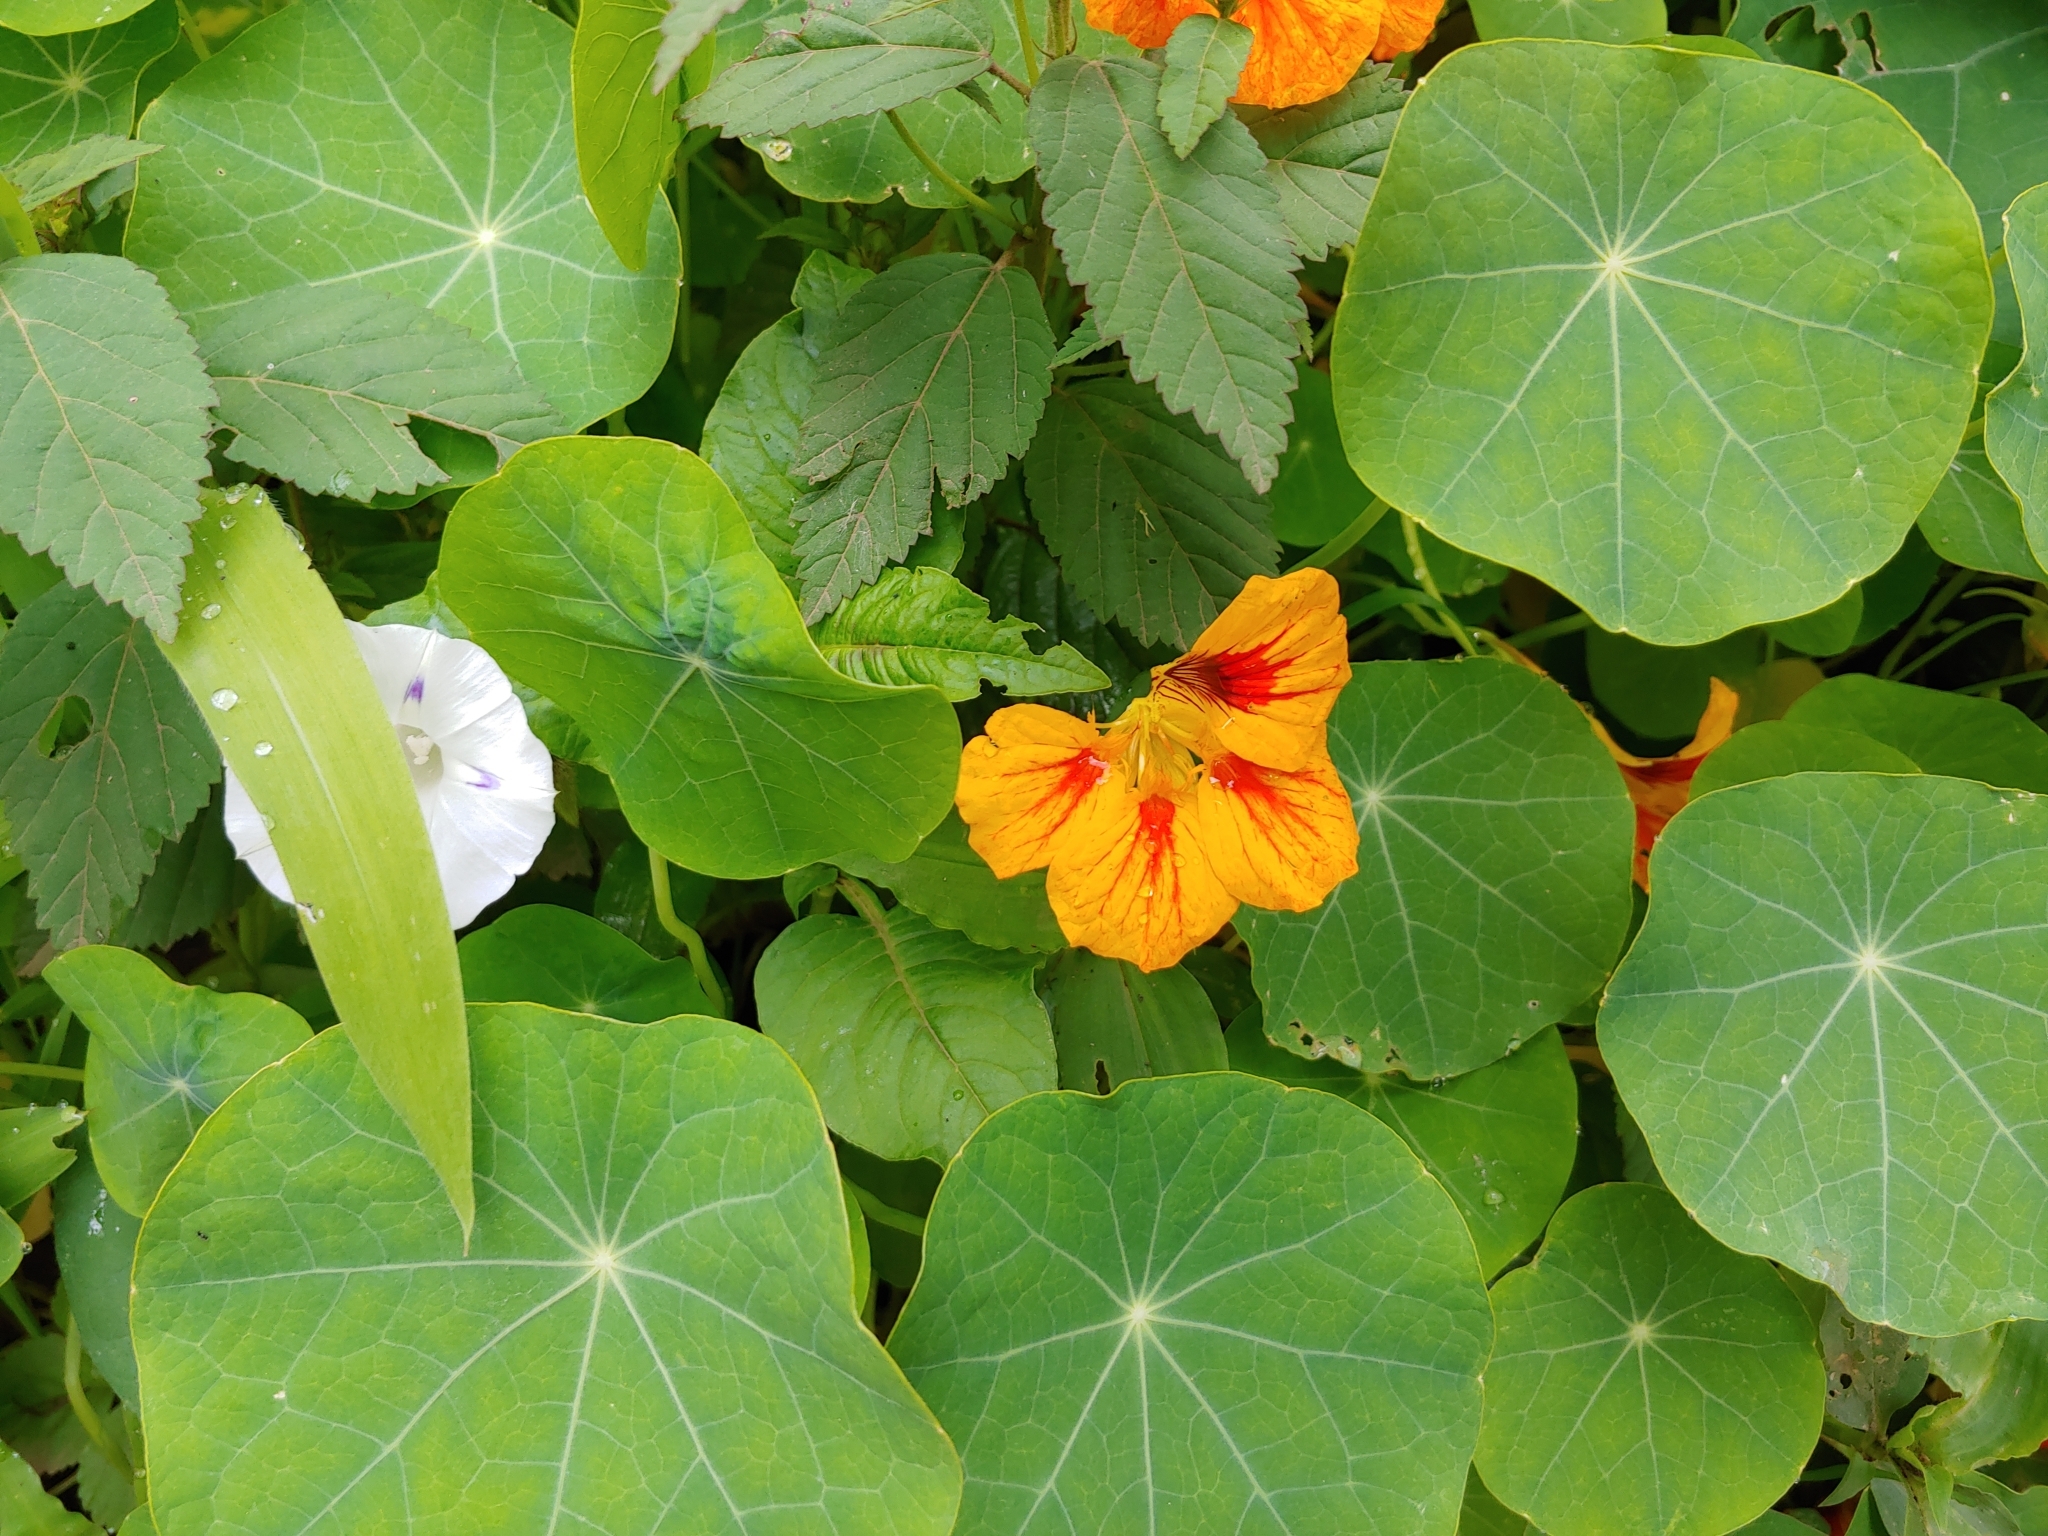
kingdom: Plantae
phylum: Tracheophyta
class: Magnoliopsida
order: Brassicales
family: Tropaeolaceae
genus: Tropaeolum
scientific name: Tropaeolum majus
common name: Nasturtium
